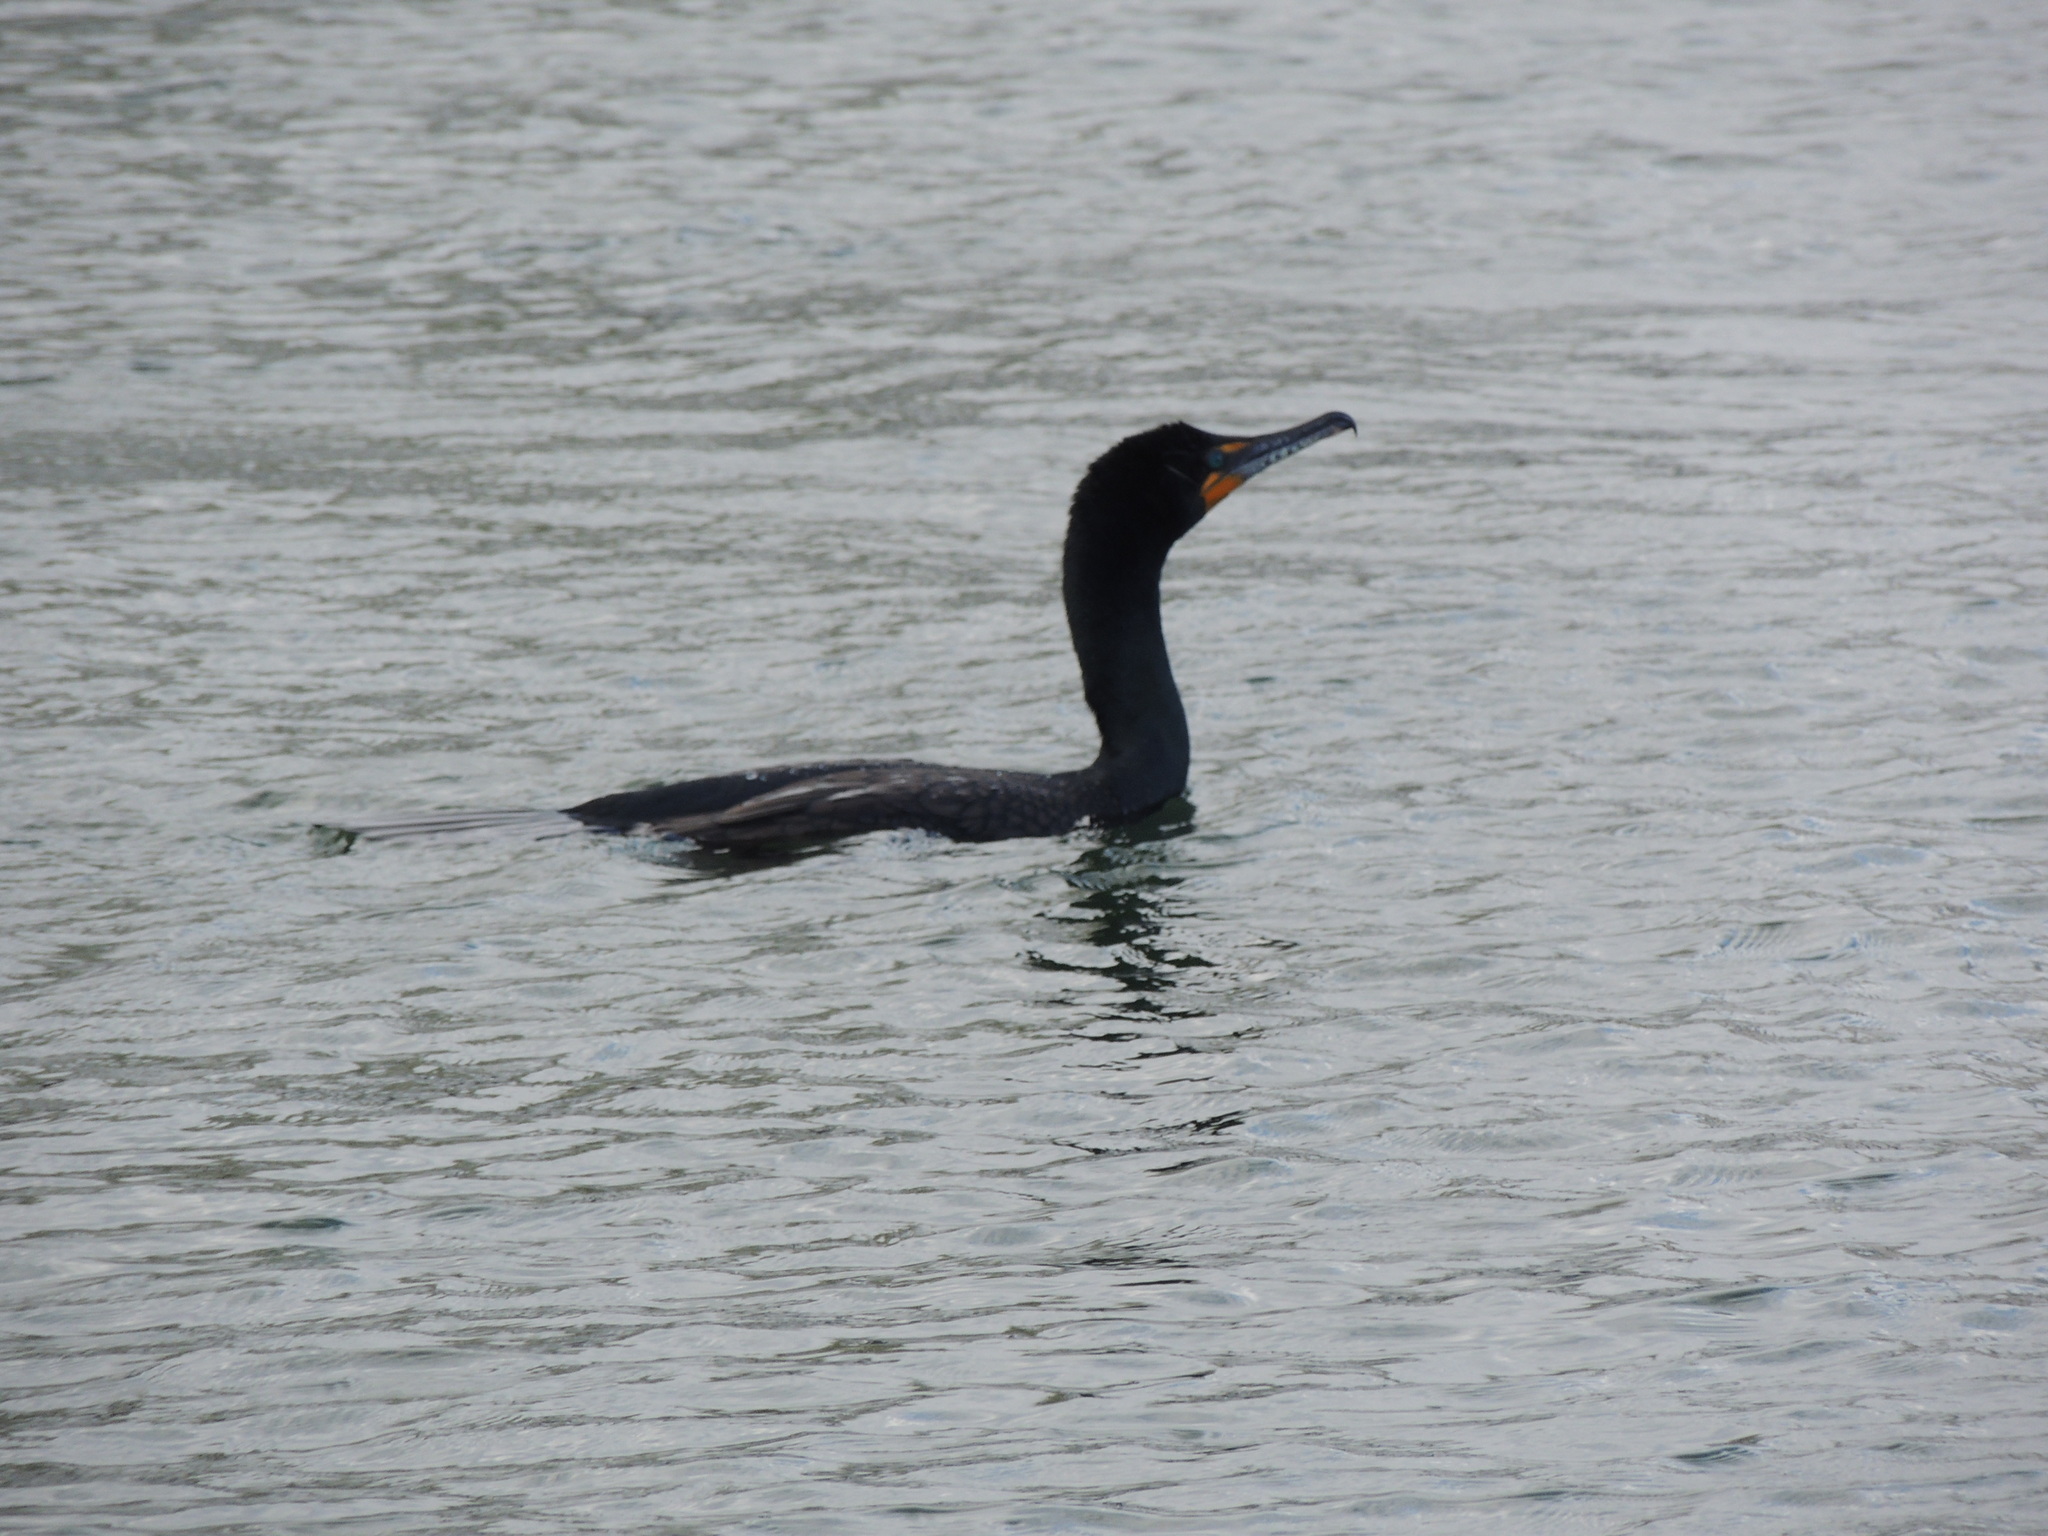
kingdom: Animalia
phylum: Chordata
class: Aves
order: Suliformes
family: Phalacrocoracidae
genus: Phalacrocorax
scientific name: Phalacrocorax auritus
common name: Double-crested cormorant
